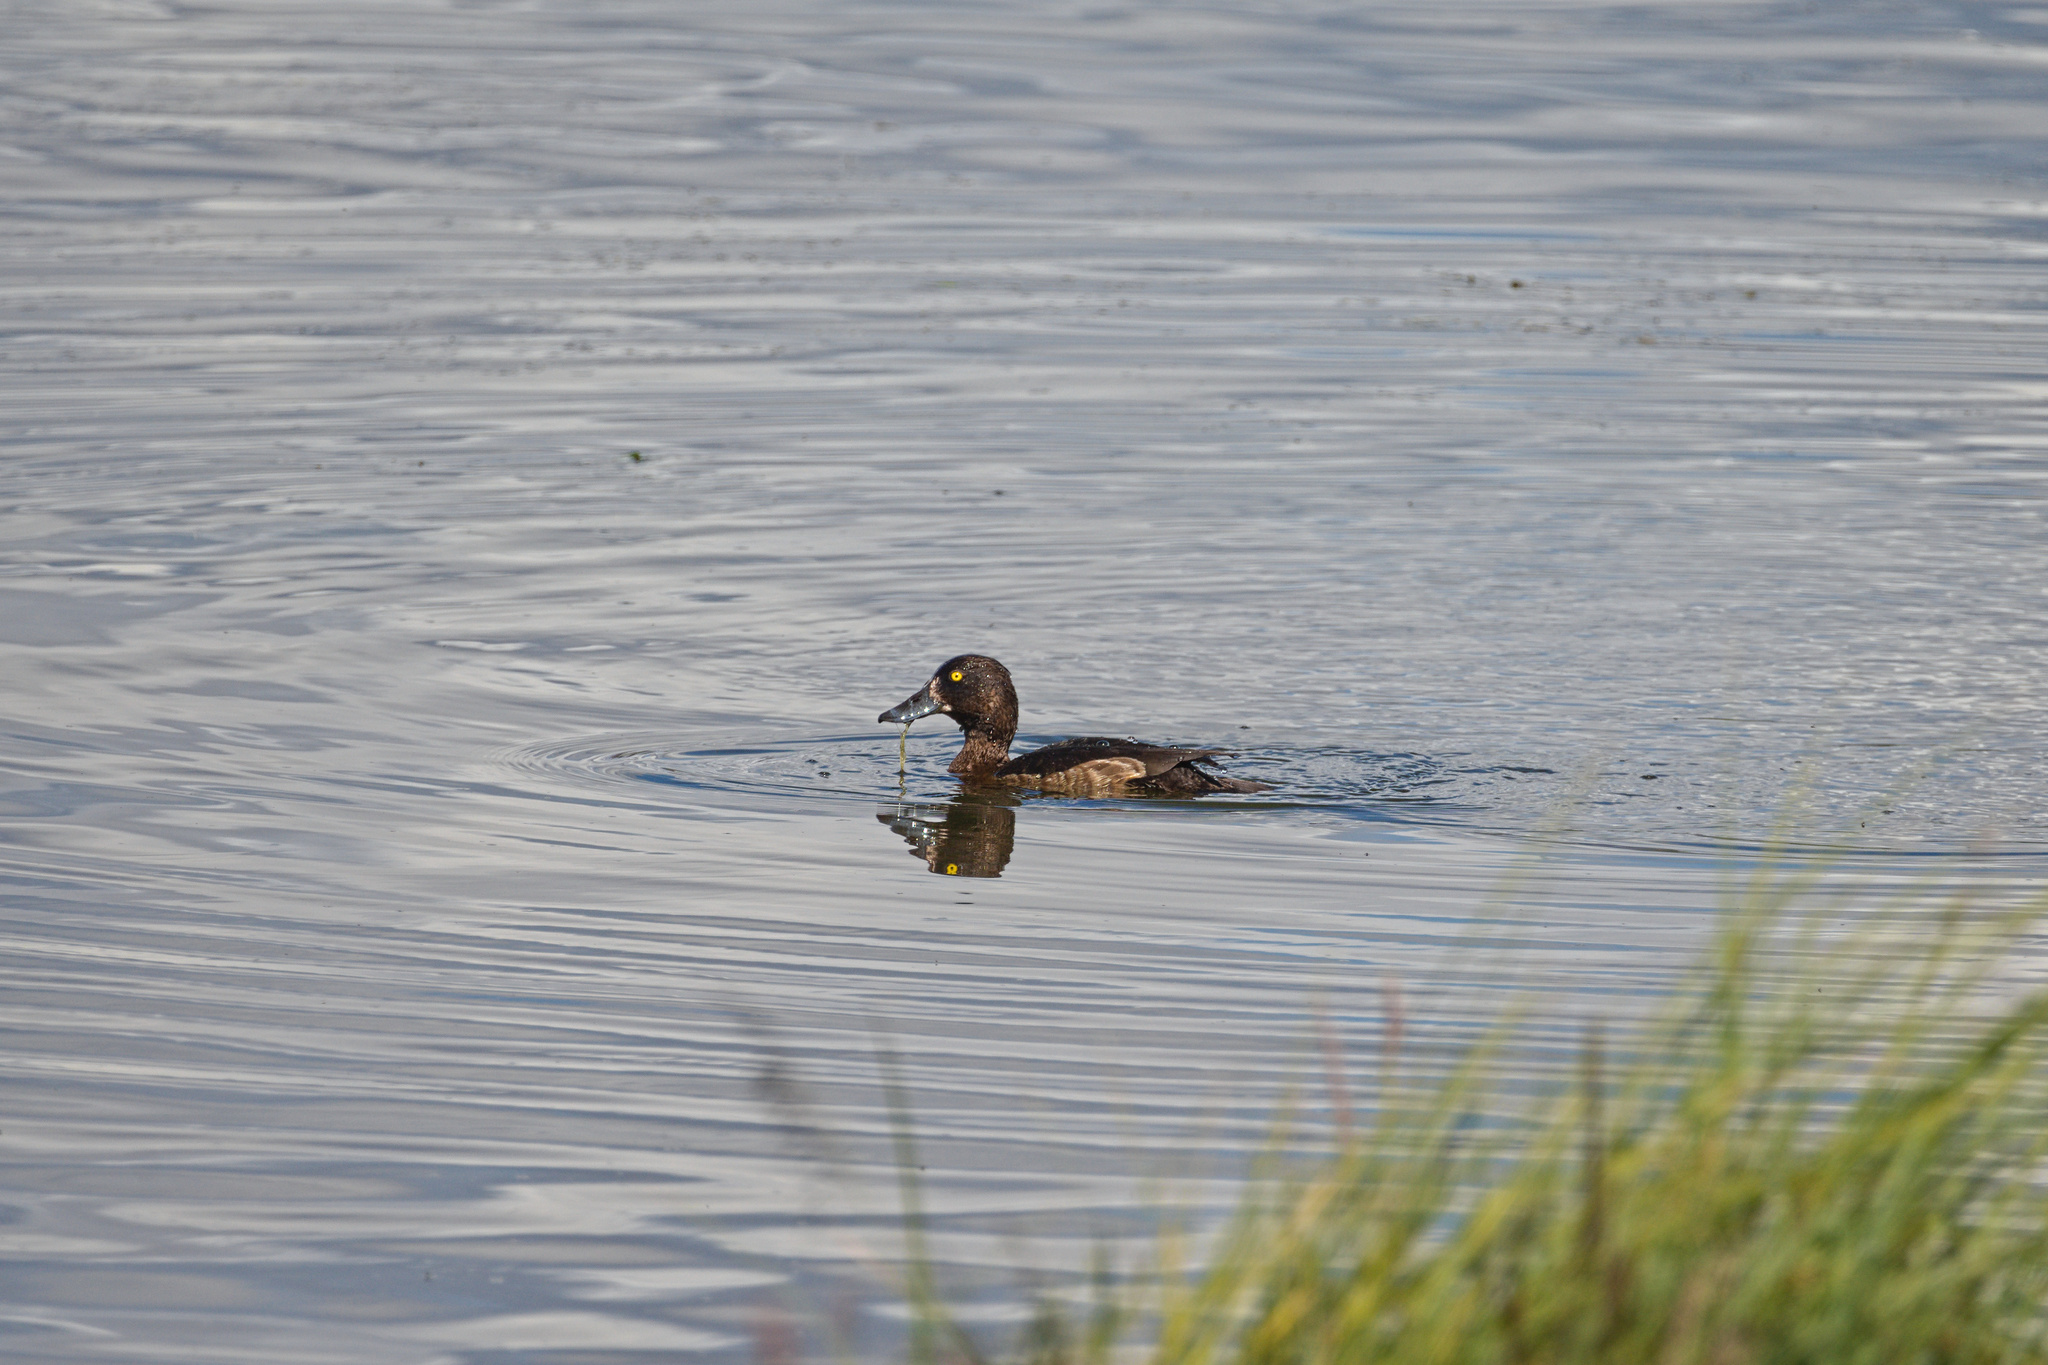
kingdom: Animalia
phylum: Chordata
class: Aves
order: Anseriformes
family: Anatidae
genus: Aythya
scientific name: Aythya fuligula
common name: Tufted duck
